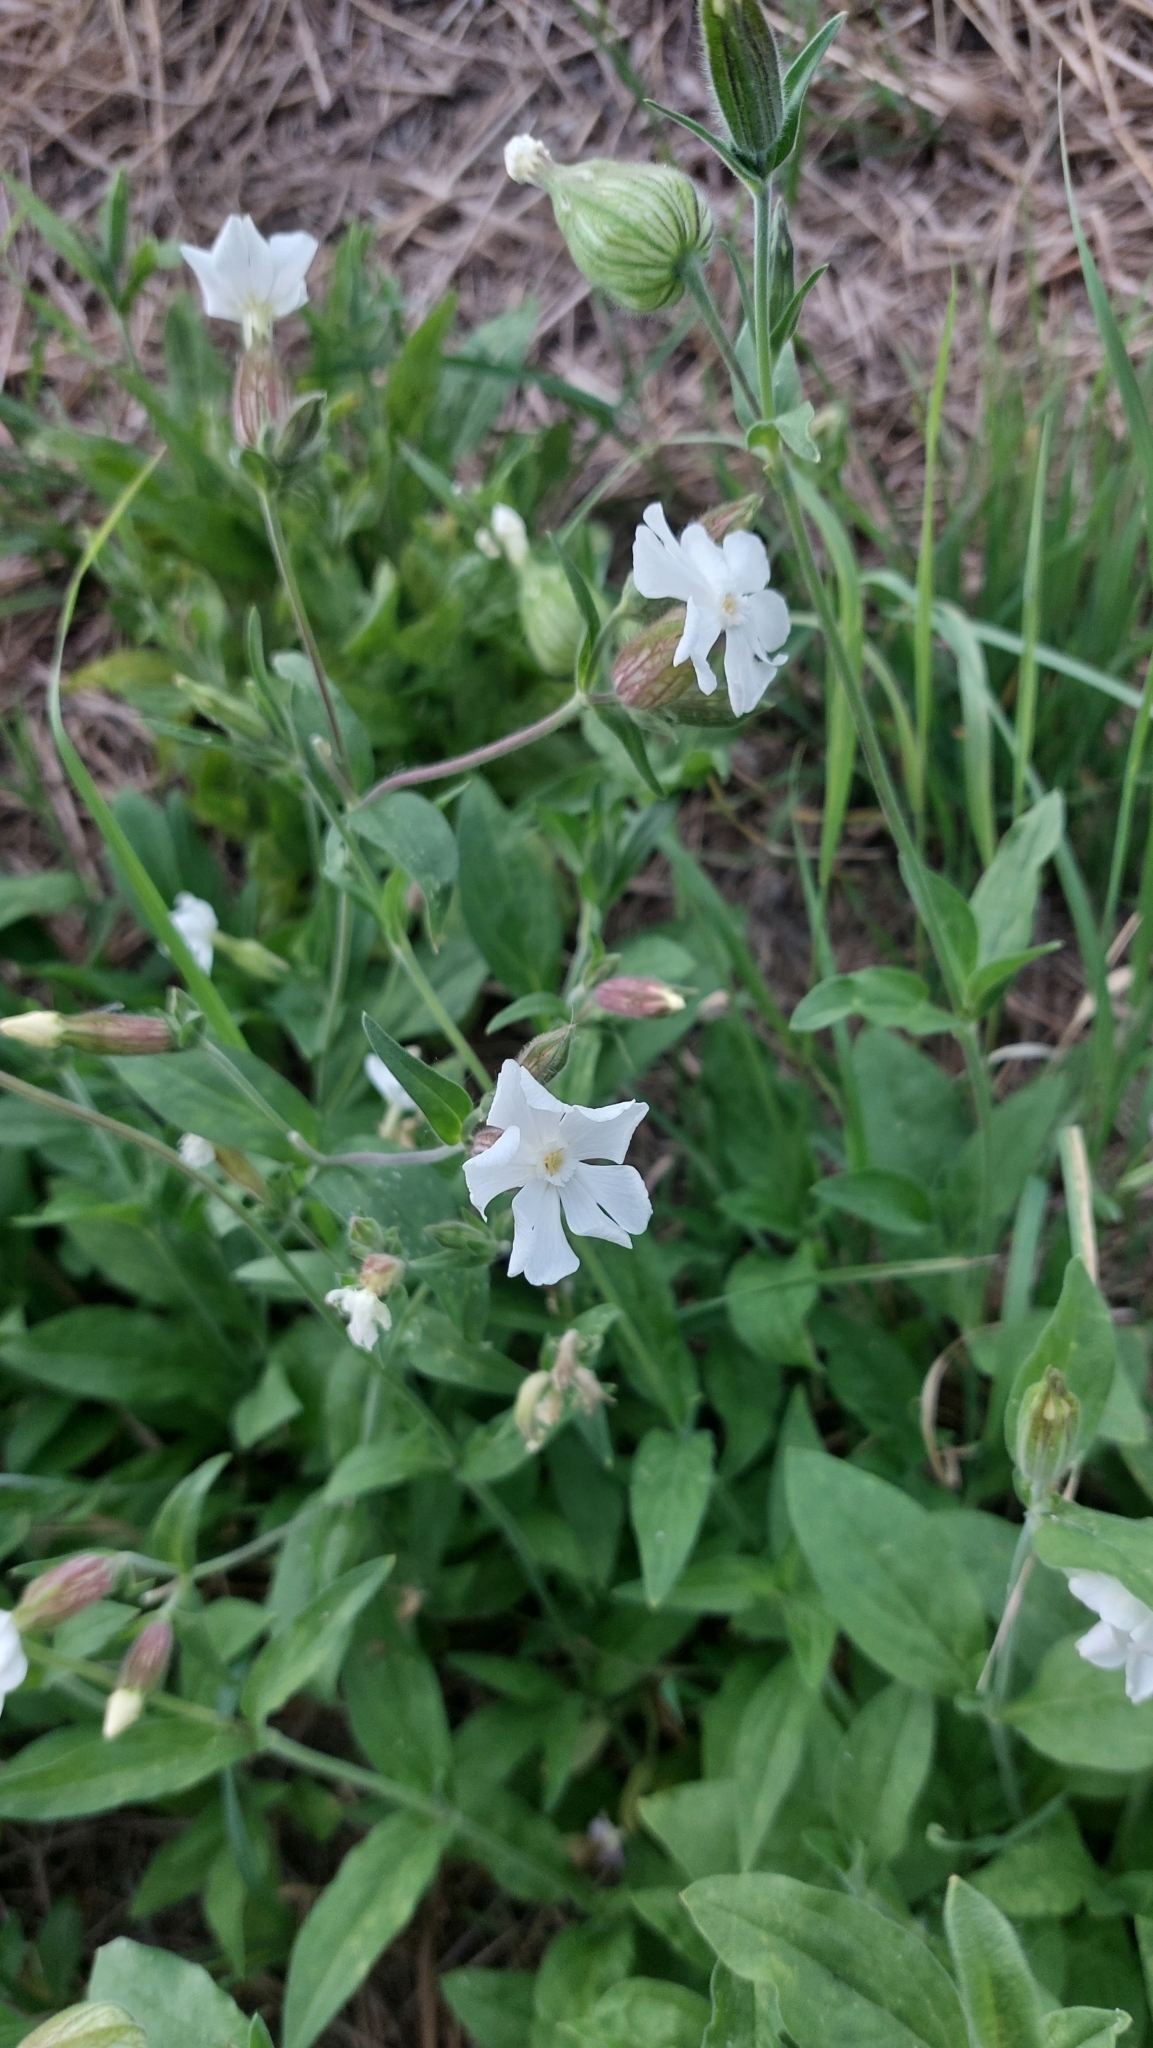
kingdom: Plantae
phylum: Tracheophyta
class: Magnoliopsida
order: Caryophyllales
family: Caryophyllaceae
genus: Silene
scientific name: Silene latifolia
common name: White campion
